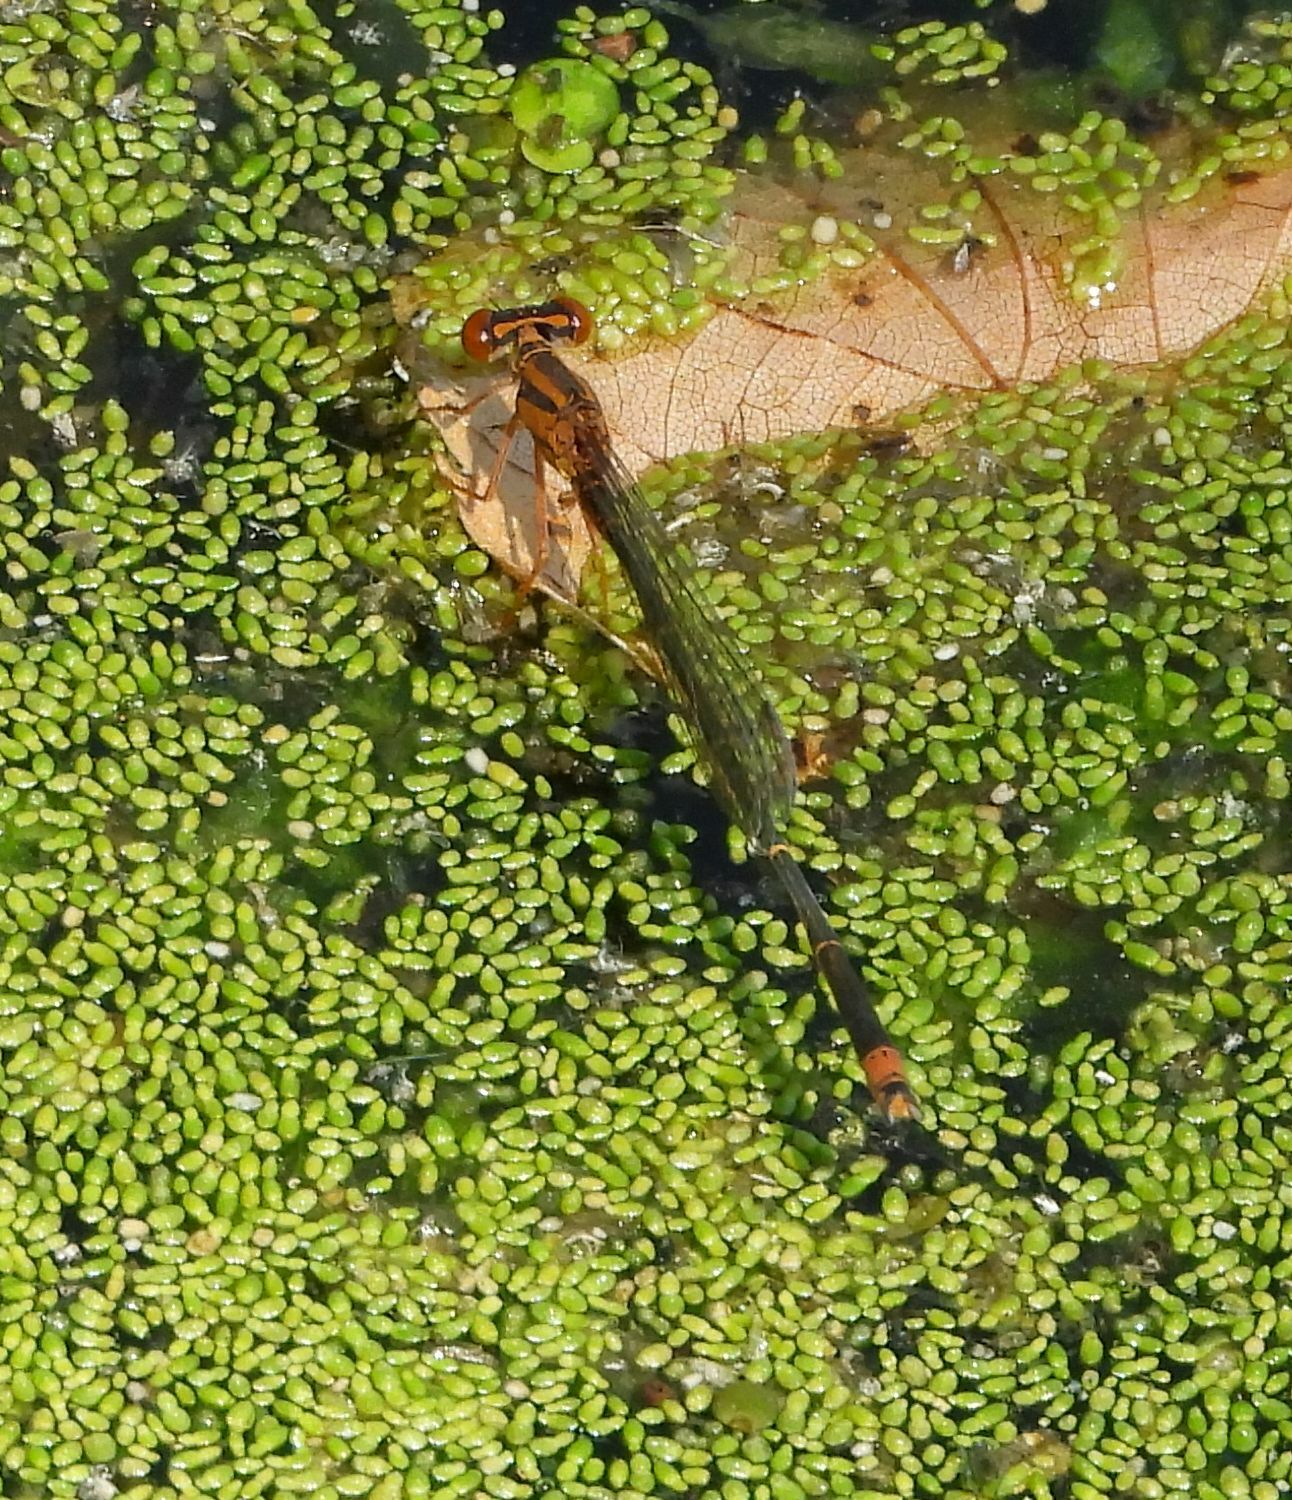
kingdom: Animalia
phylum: Arthropoda
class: Insecta
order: Odonata
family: Coenagrionidae
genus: Enallagma
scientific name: Enallagma signatum
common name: Orange bluet
